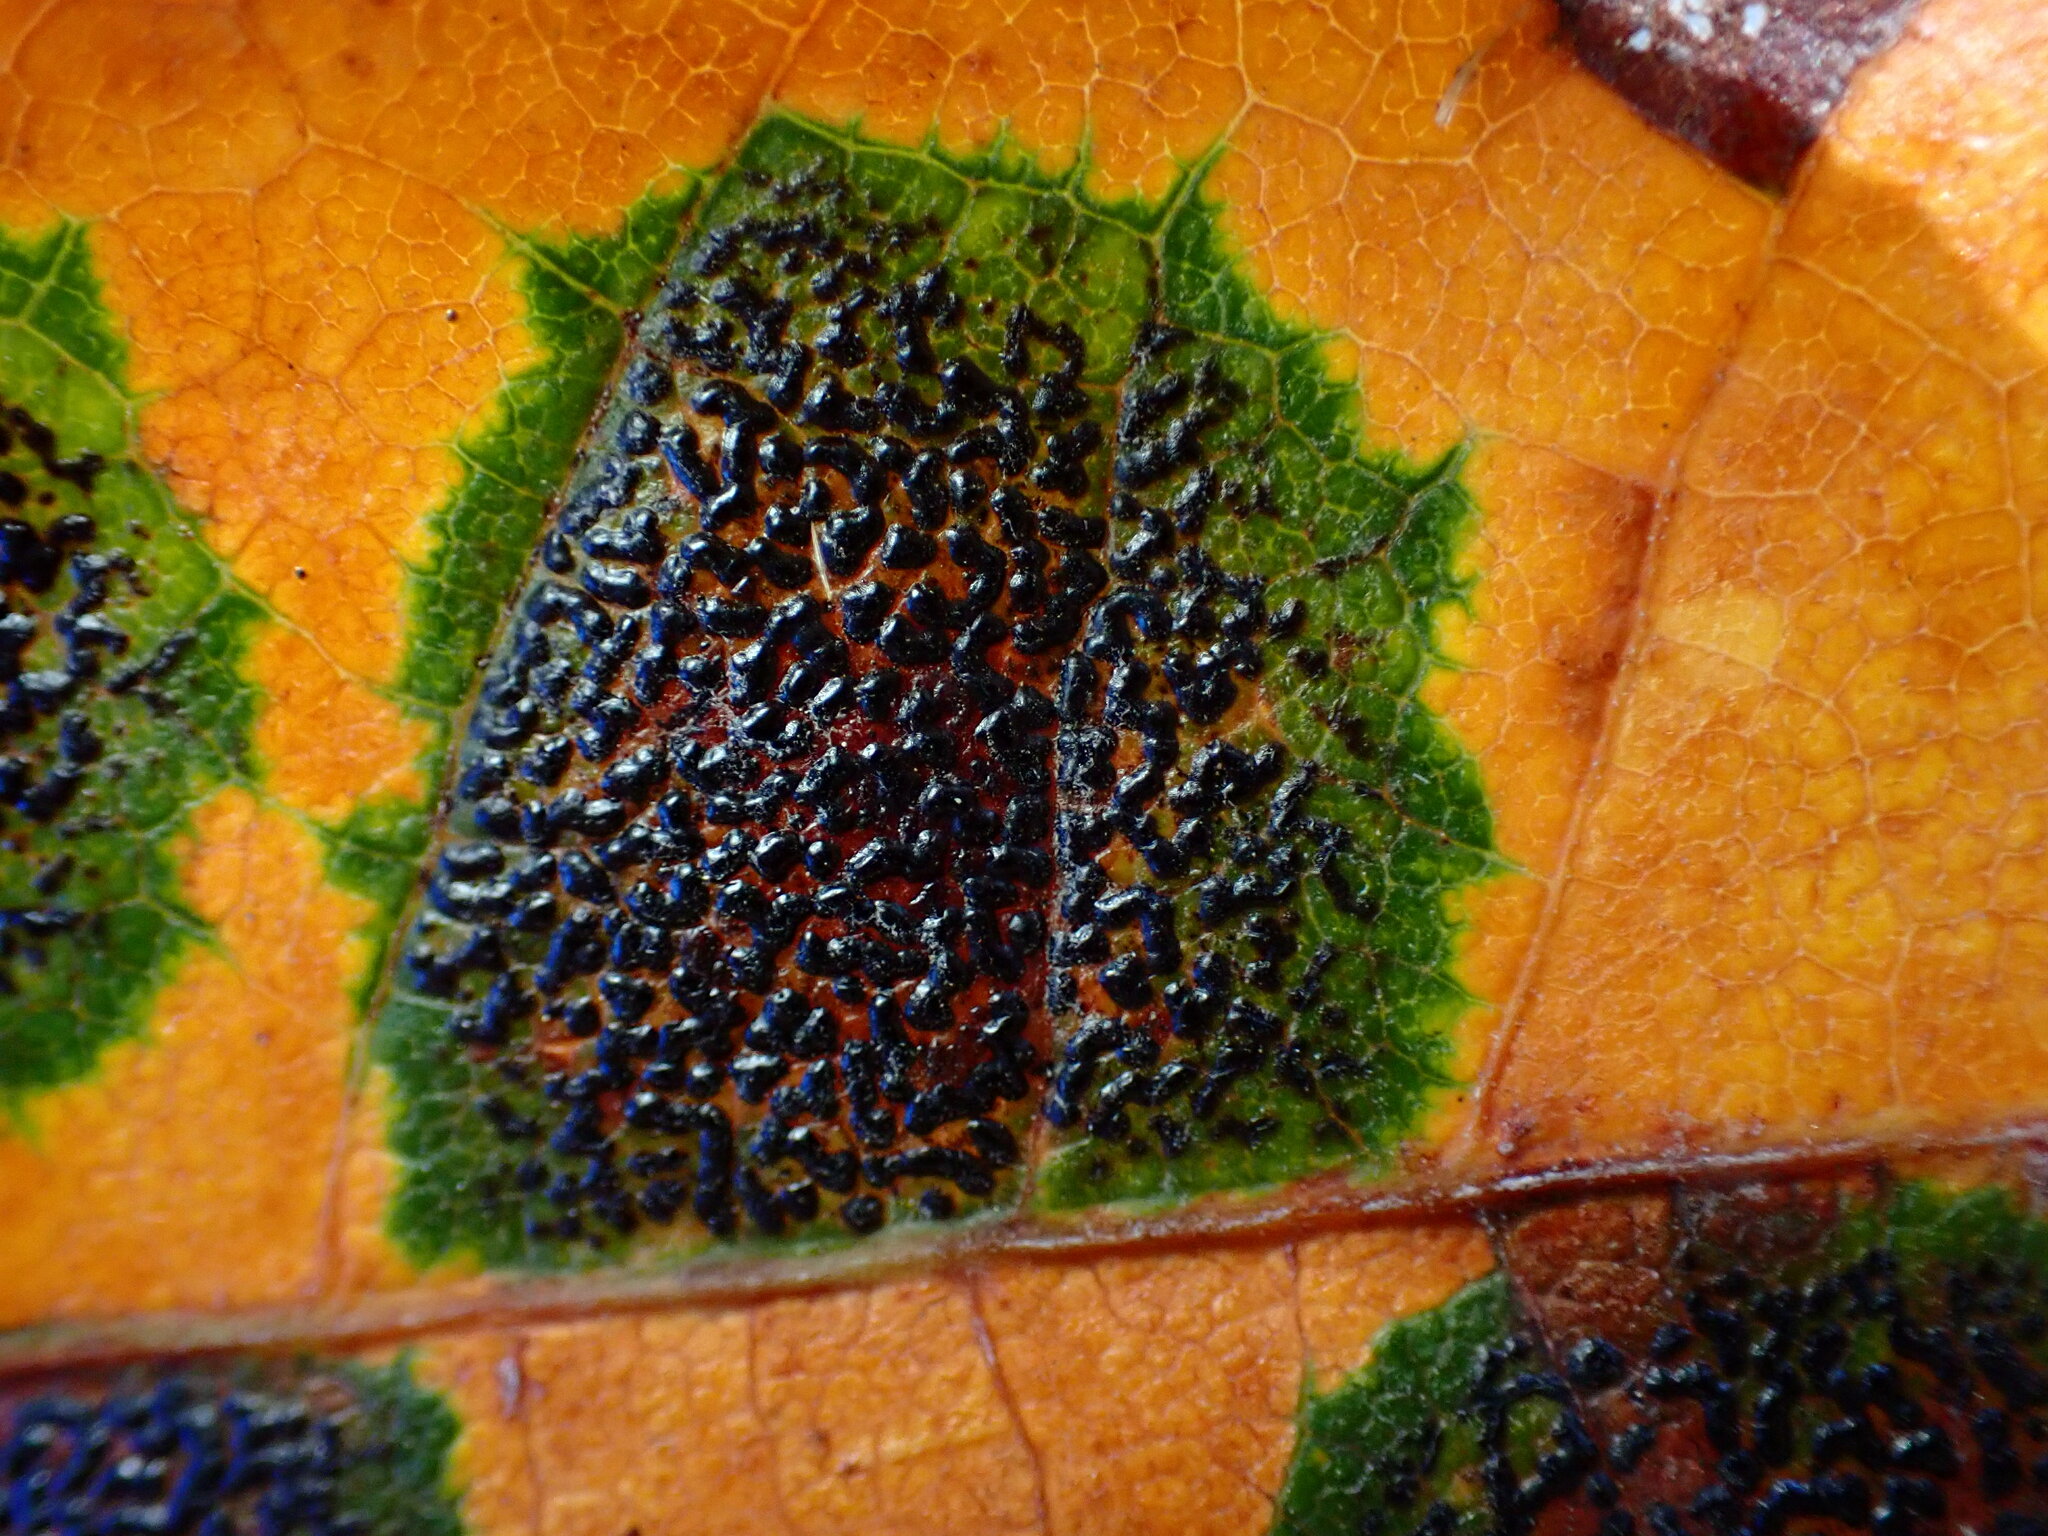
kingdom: Fungi
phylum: Ascomycota
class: Leotiomycetes
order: Rhytismatales
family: Rhytismataceae
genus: Rhytisma
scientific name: Rhytisma punctatum
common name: Speckled tar spot
